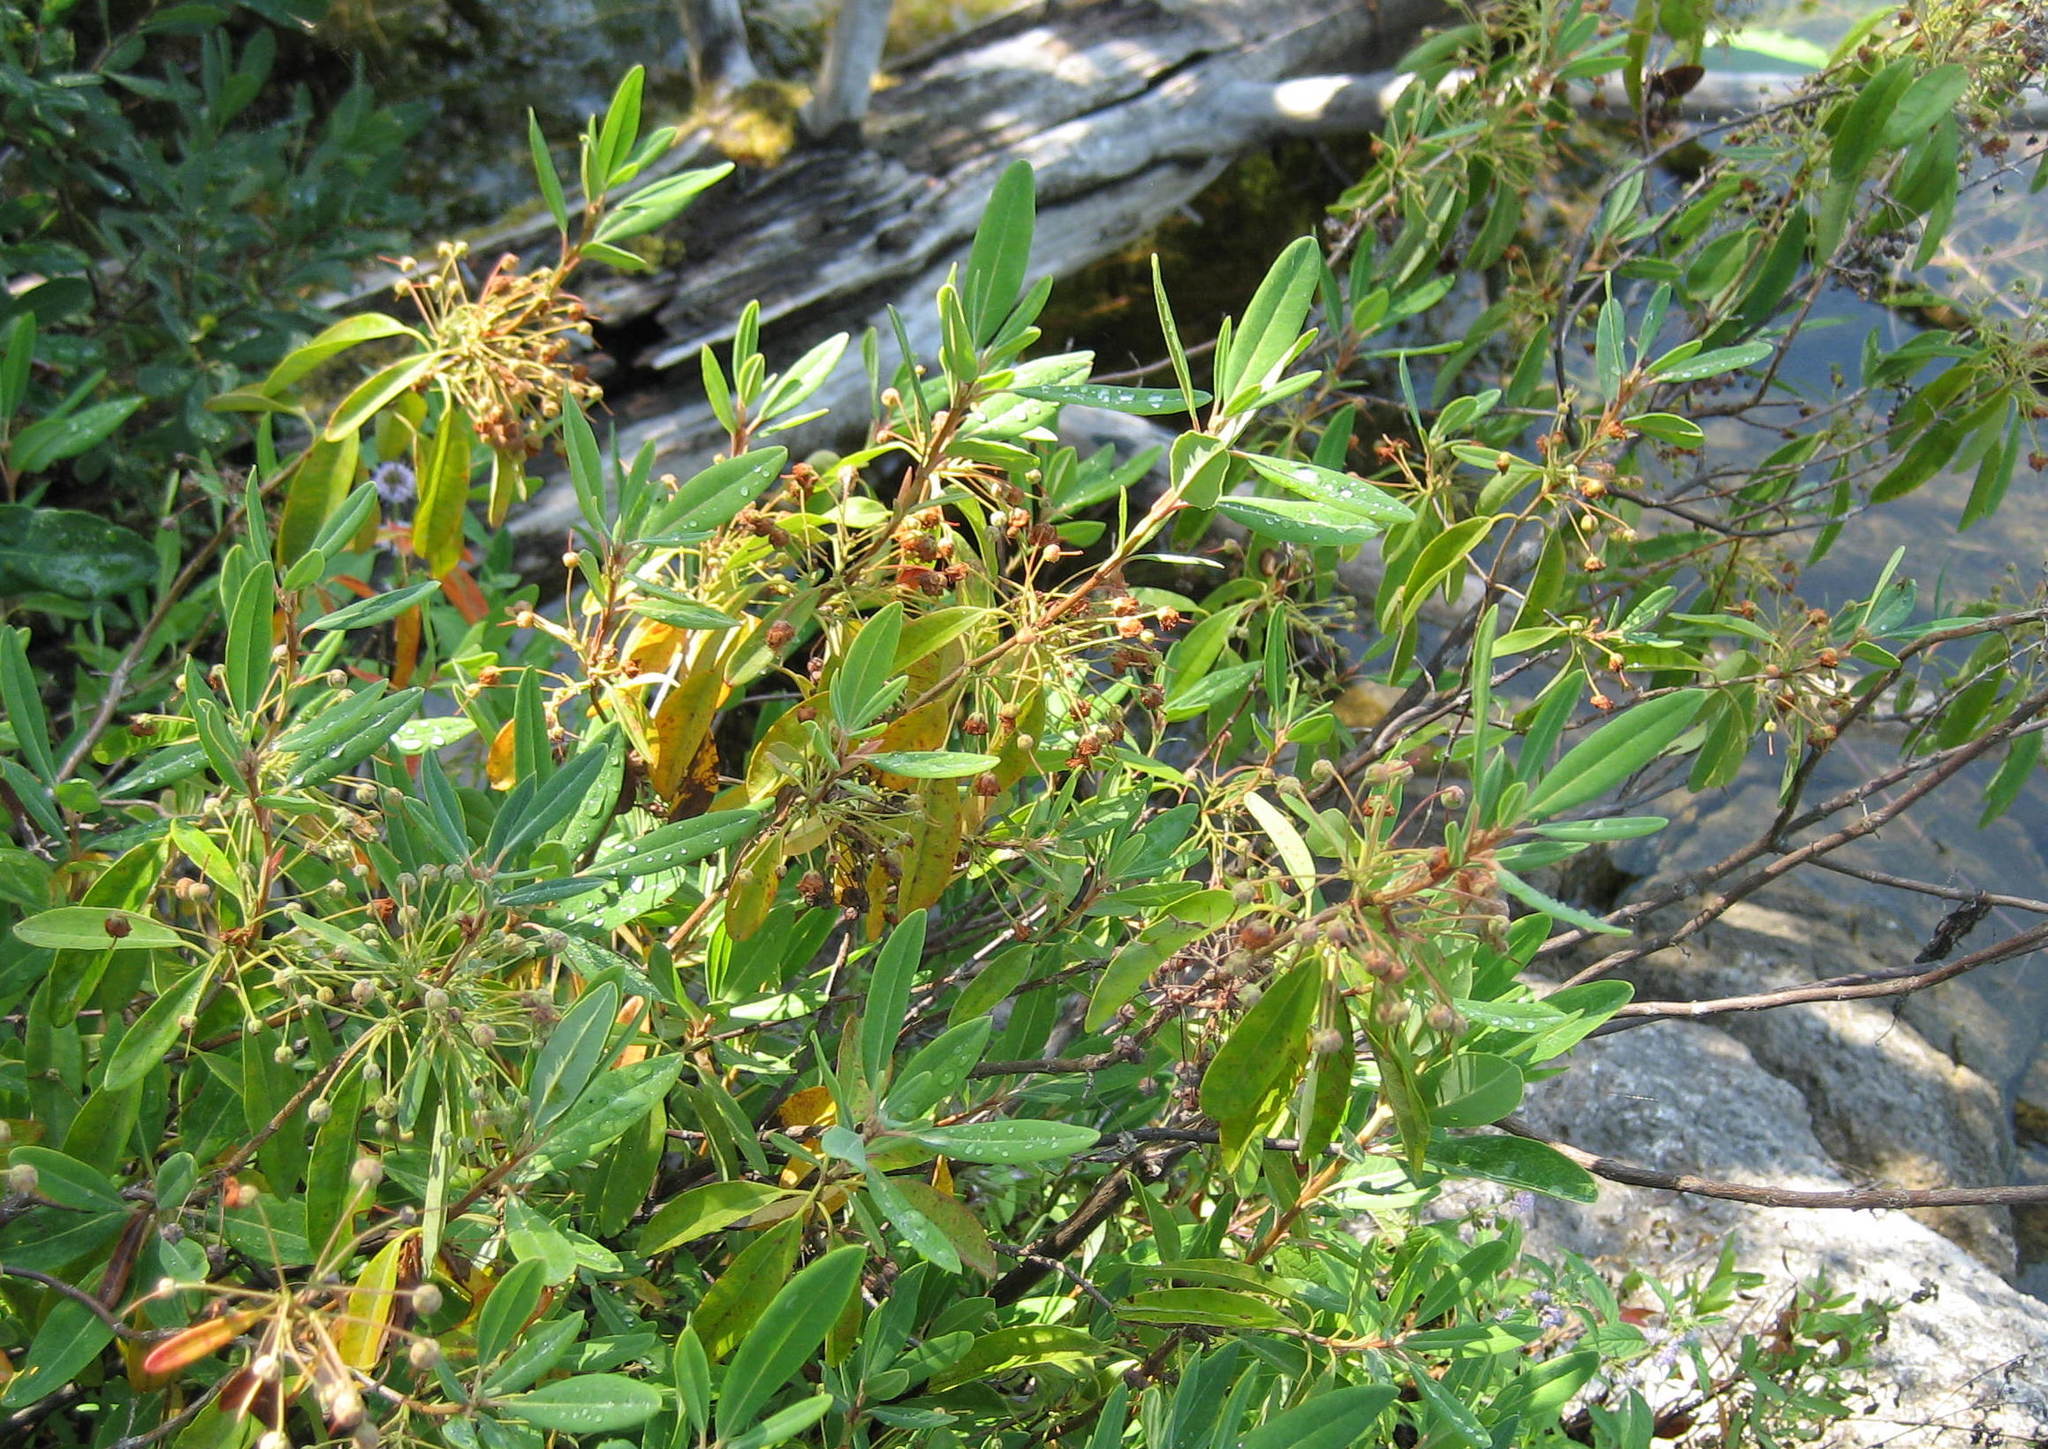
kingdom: Plantae
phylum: Tracheophyta
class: Magnoliopsida
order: Ericales
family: Ericaceae
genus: Kalmia
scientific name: Kalmia angustifolia
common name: Sheep-laurel
